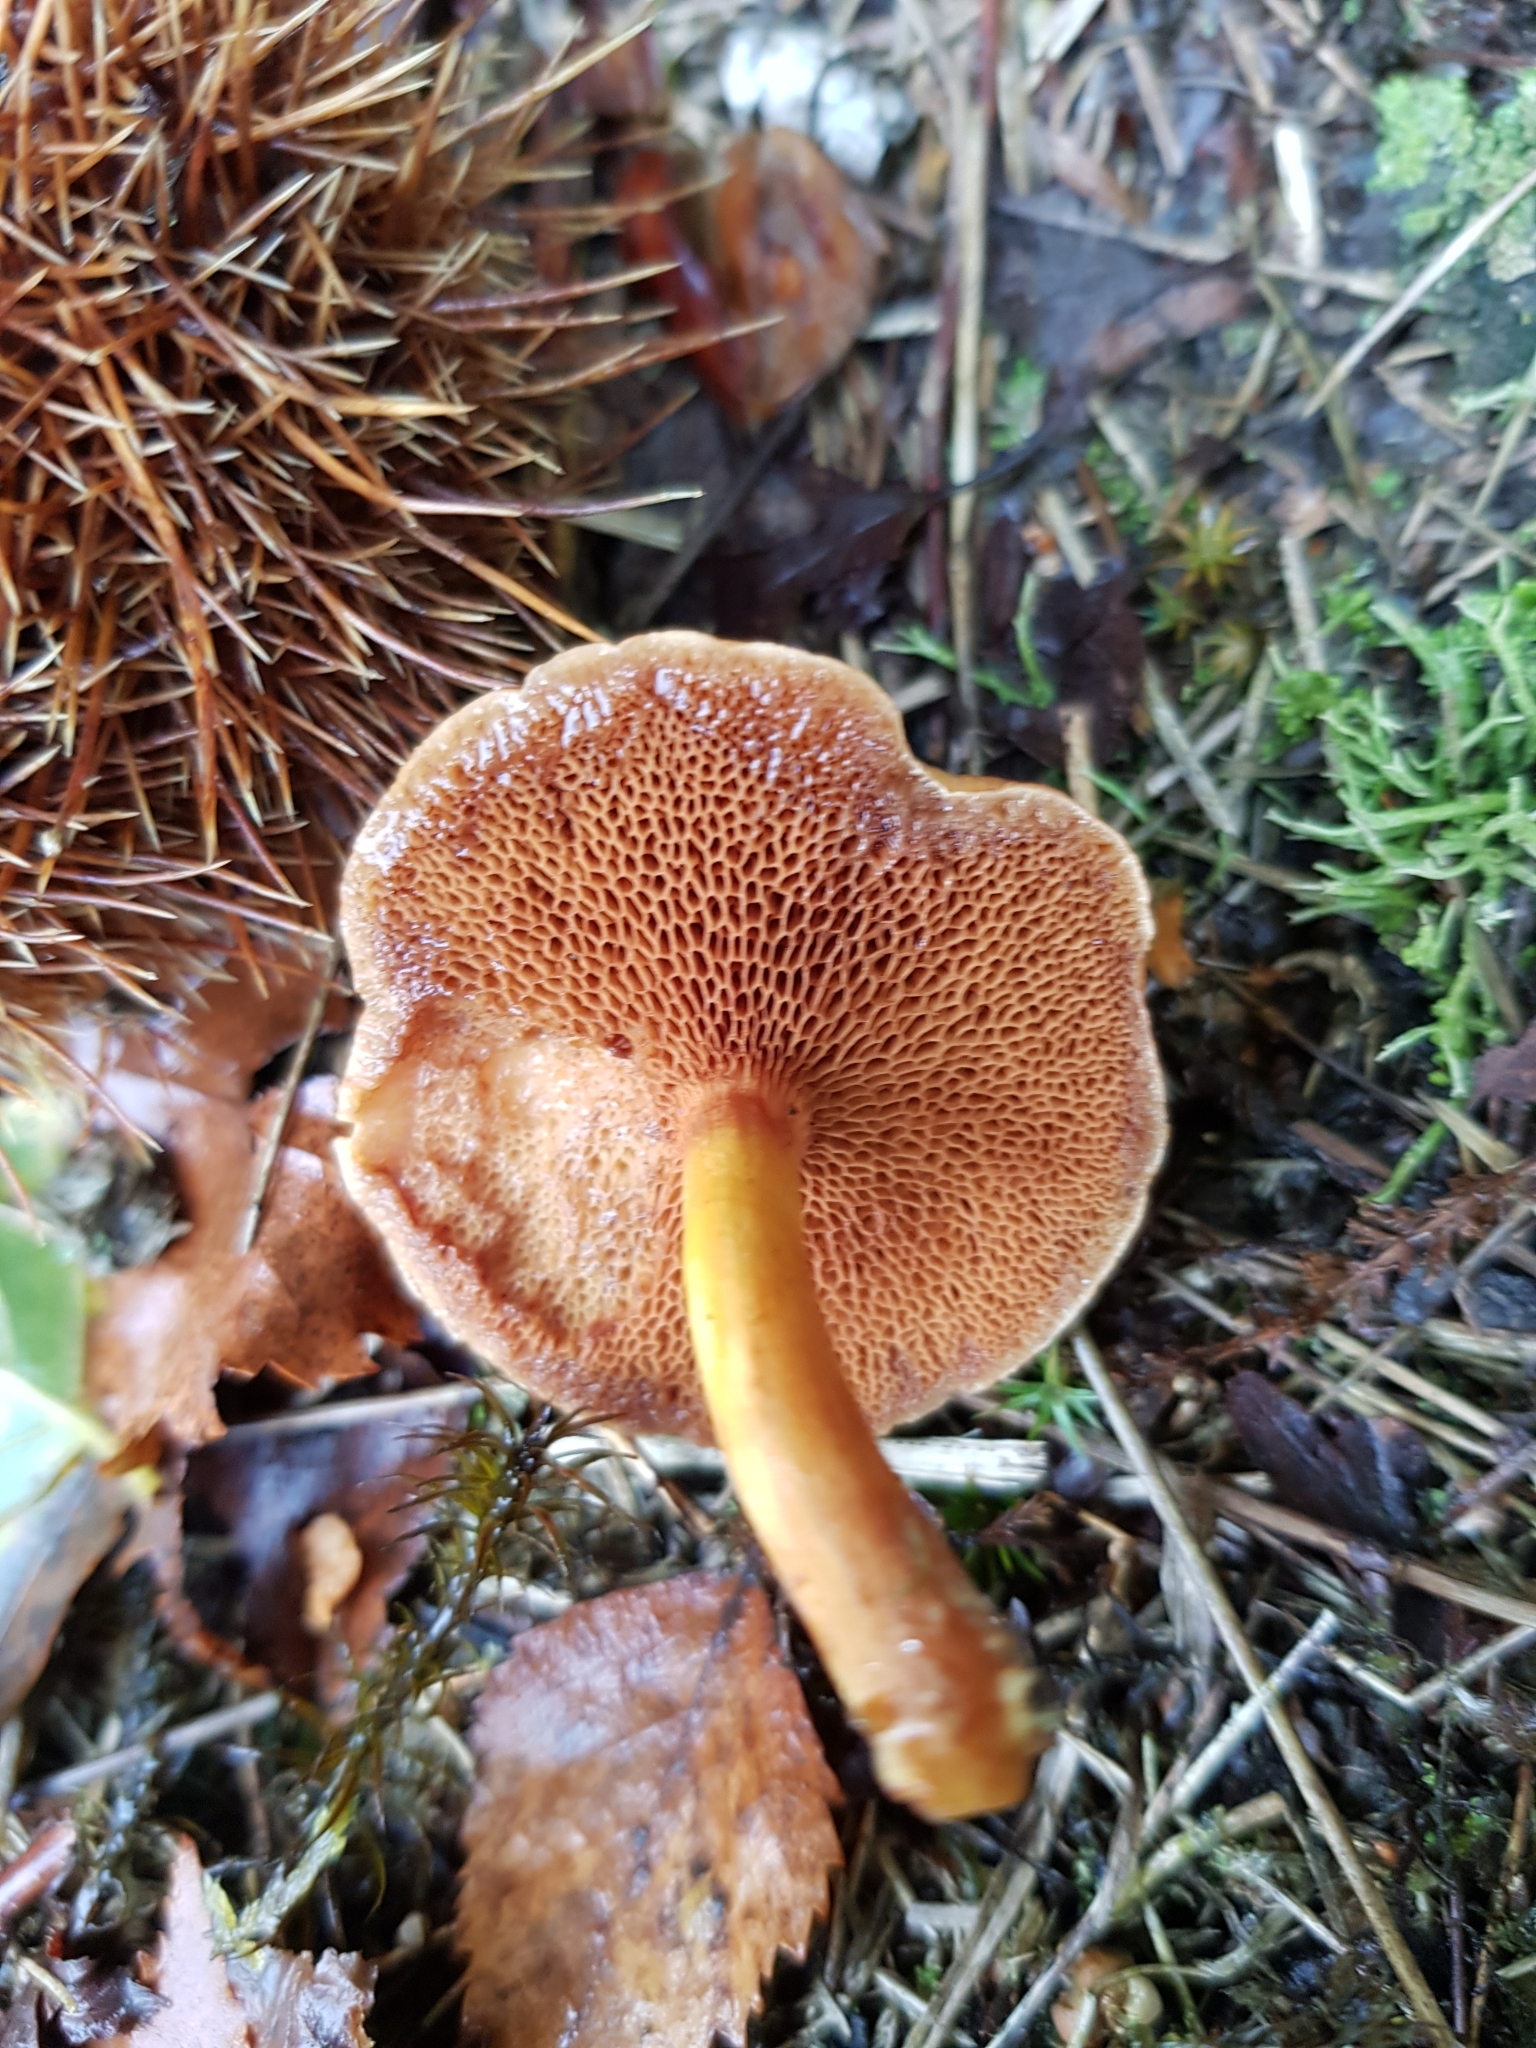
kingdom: Fungi
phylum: Basidiomycota
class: Agaricomycetes
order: Boletales
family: Boletaceae
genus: Chalciporus
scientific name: Chalciporus piperatus
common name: Peppery bolete
